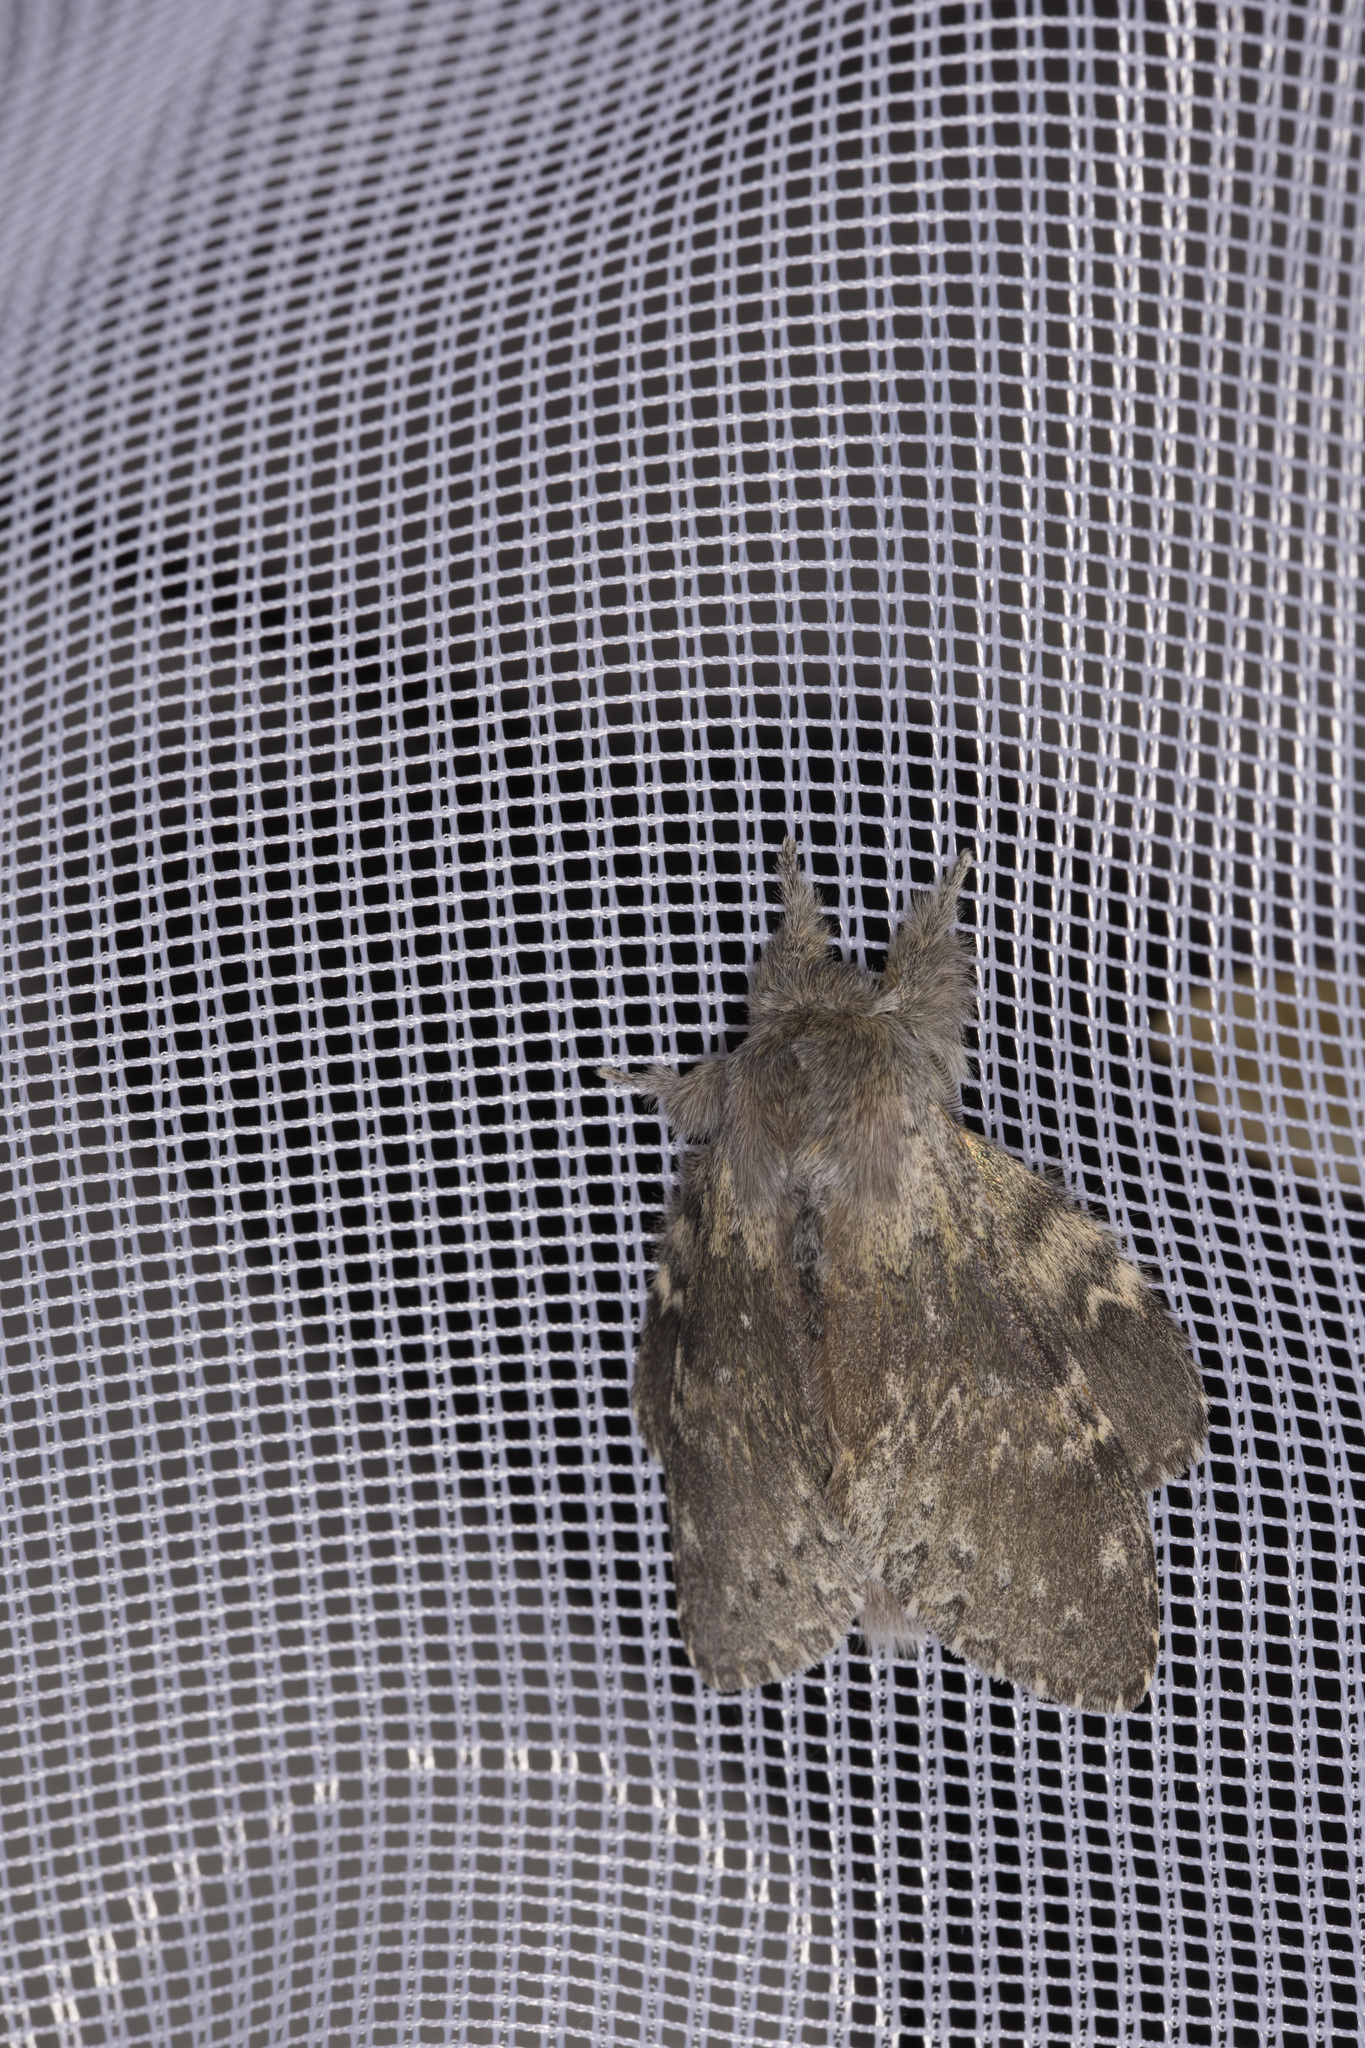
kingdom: Animalia
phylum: Arthropoda
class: Insecta
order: Lepidoptera
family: Notodontidae
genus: Stauropus
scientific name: Stauropus fagi
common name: Lobster moth
